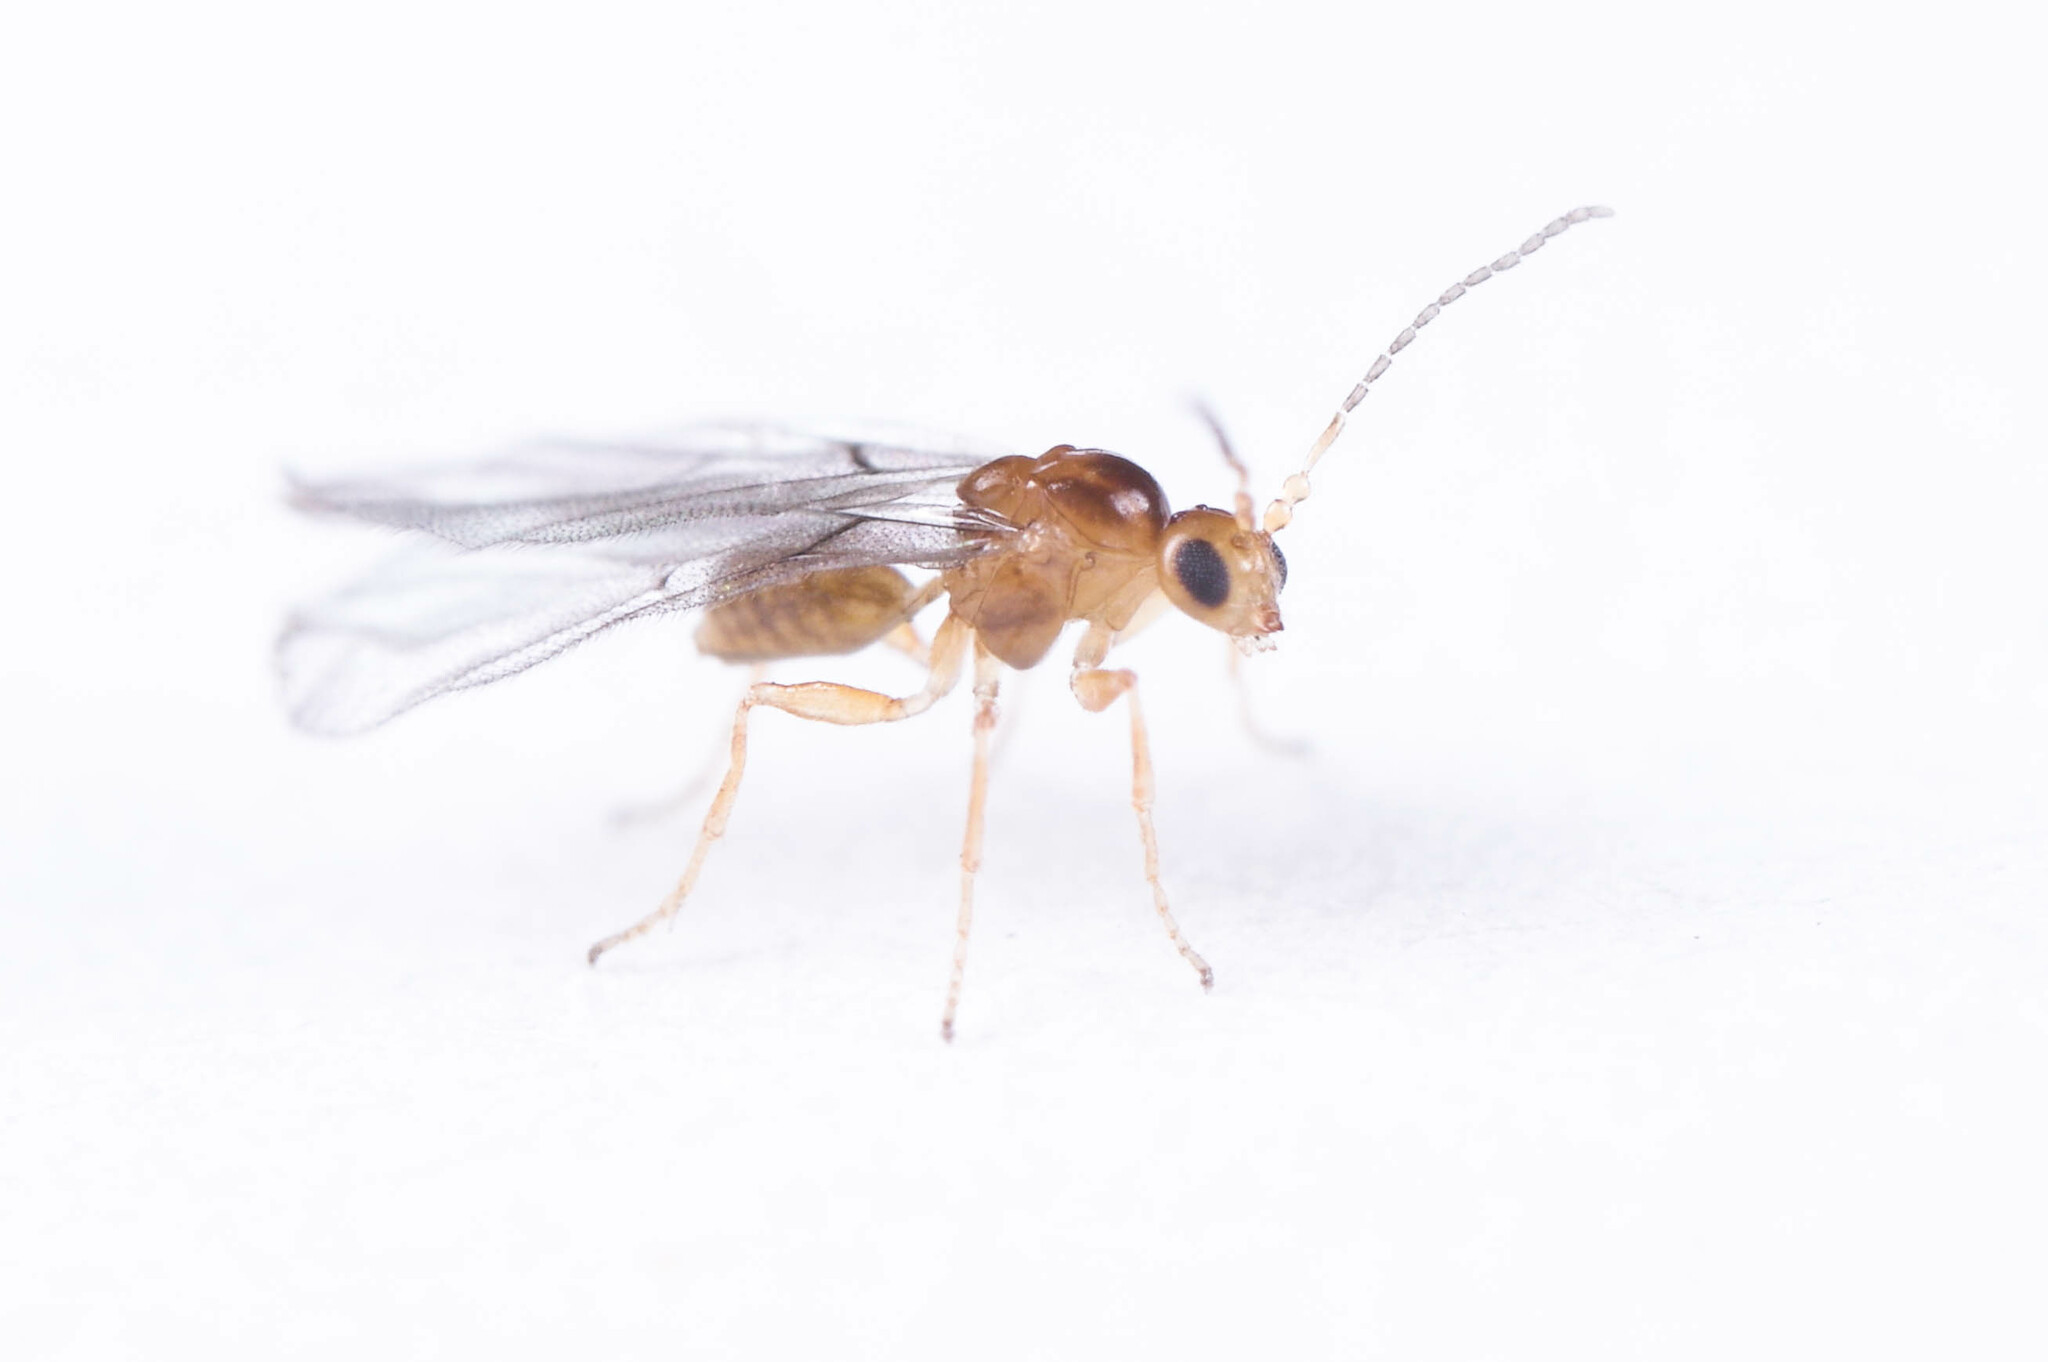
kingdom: Animalia
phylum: Arthropoda
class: Insecta
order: Hymenoptera
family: Cynipidae
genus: Neuroterus
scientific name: Neuroterus saltarius
